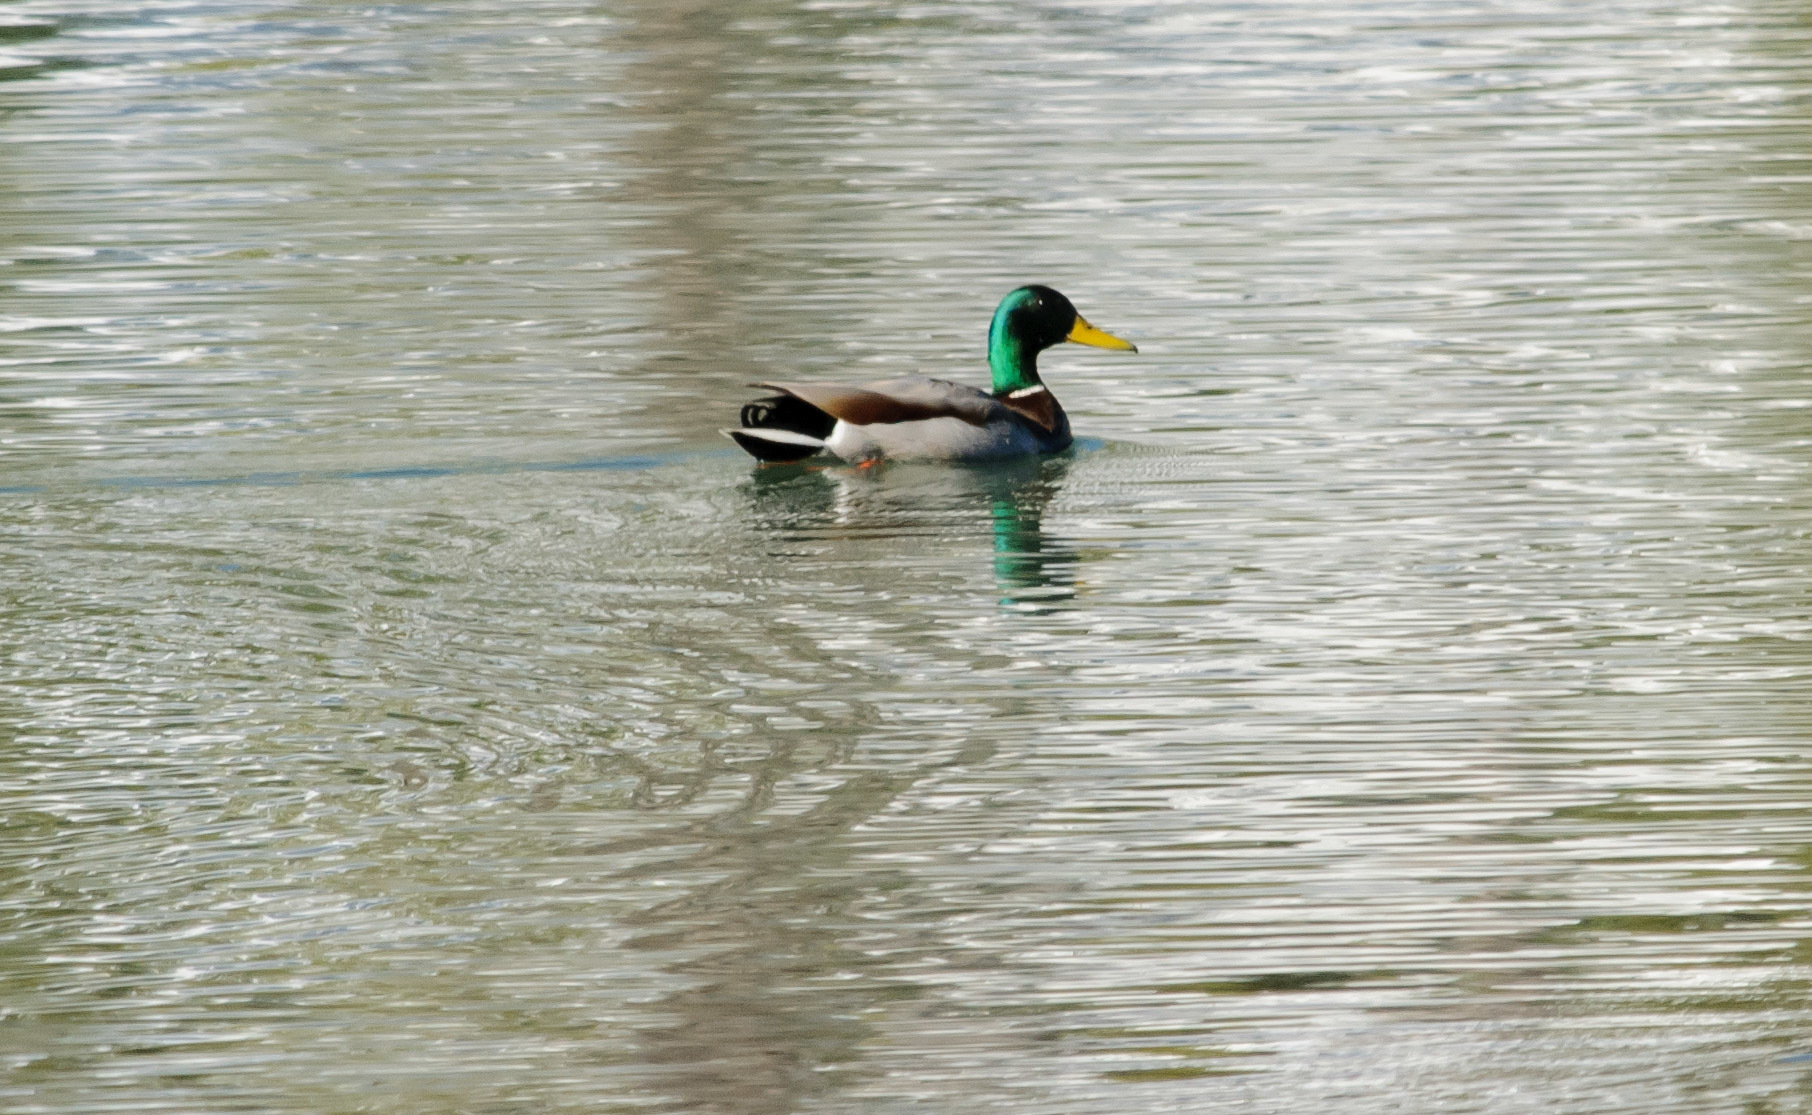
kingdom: Animalia
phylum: Chordata
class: Aves
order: Anseriformes
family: Anatidae
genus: Anas
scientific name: Anas platyrhynchos
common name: Mallard
